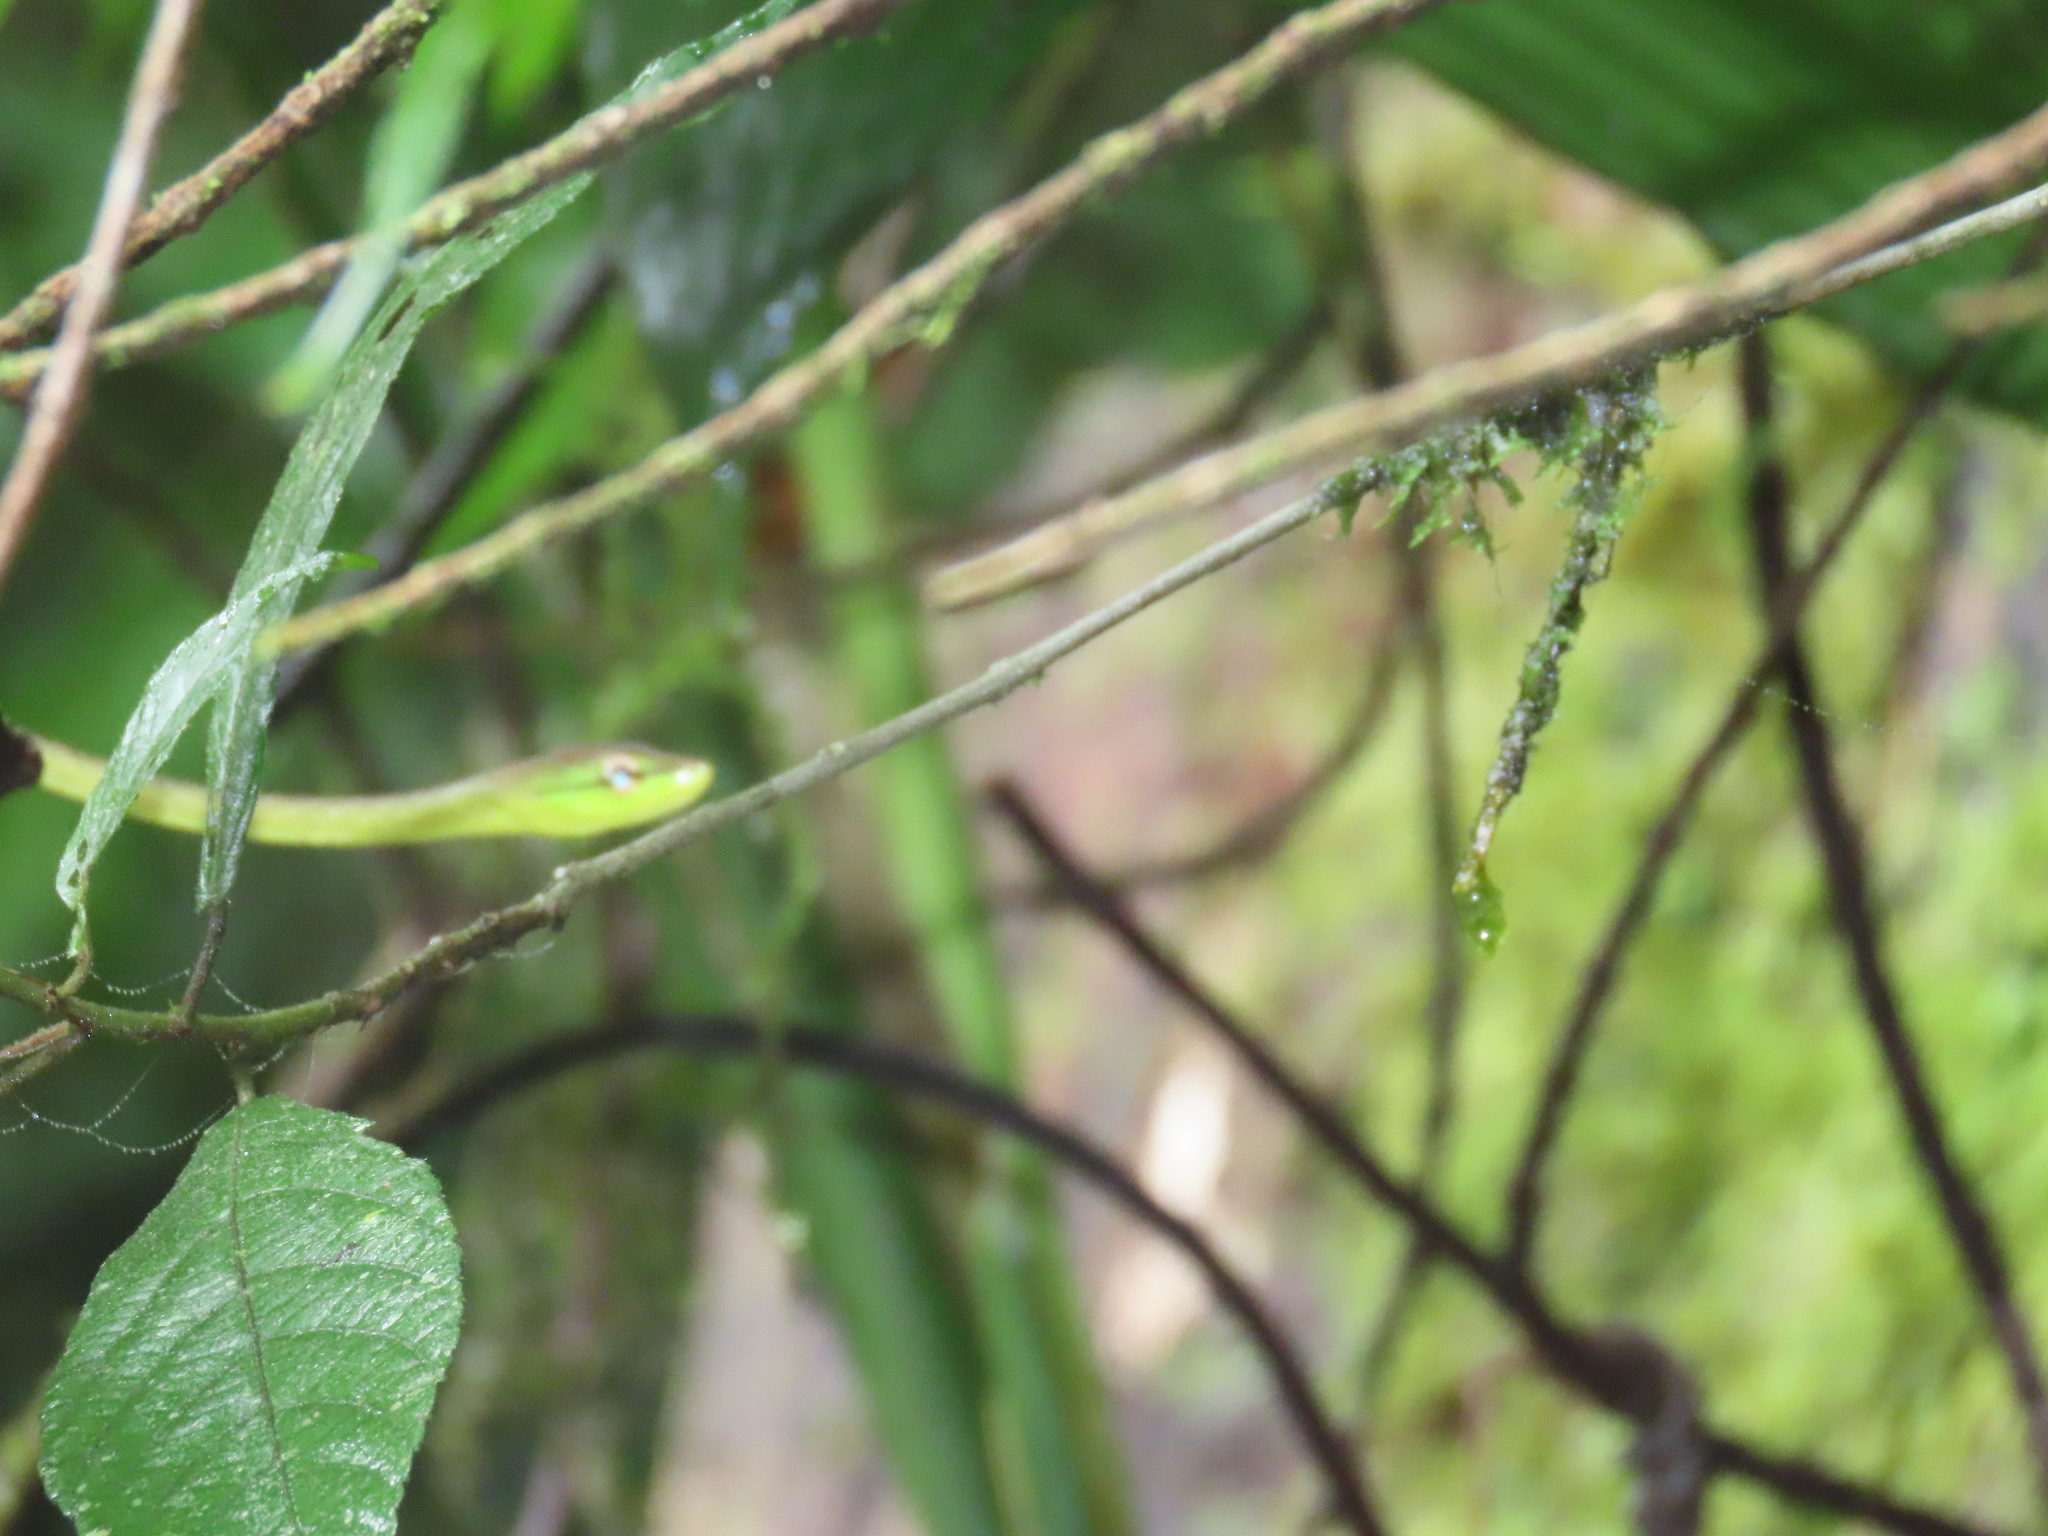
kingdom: Animalia
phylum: Chordata
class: Squamata
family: Colubridae
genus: Oxybelis
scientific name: Oxybelis brevirostris
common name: Cope's vine snake
